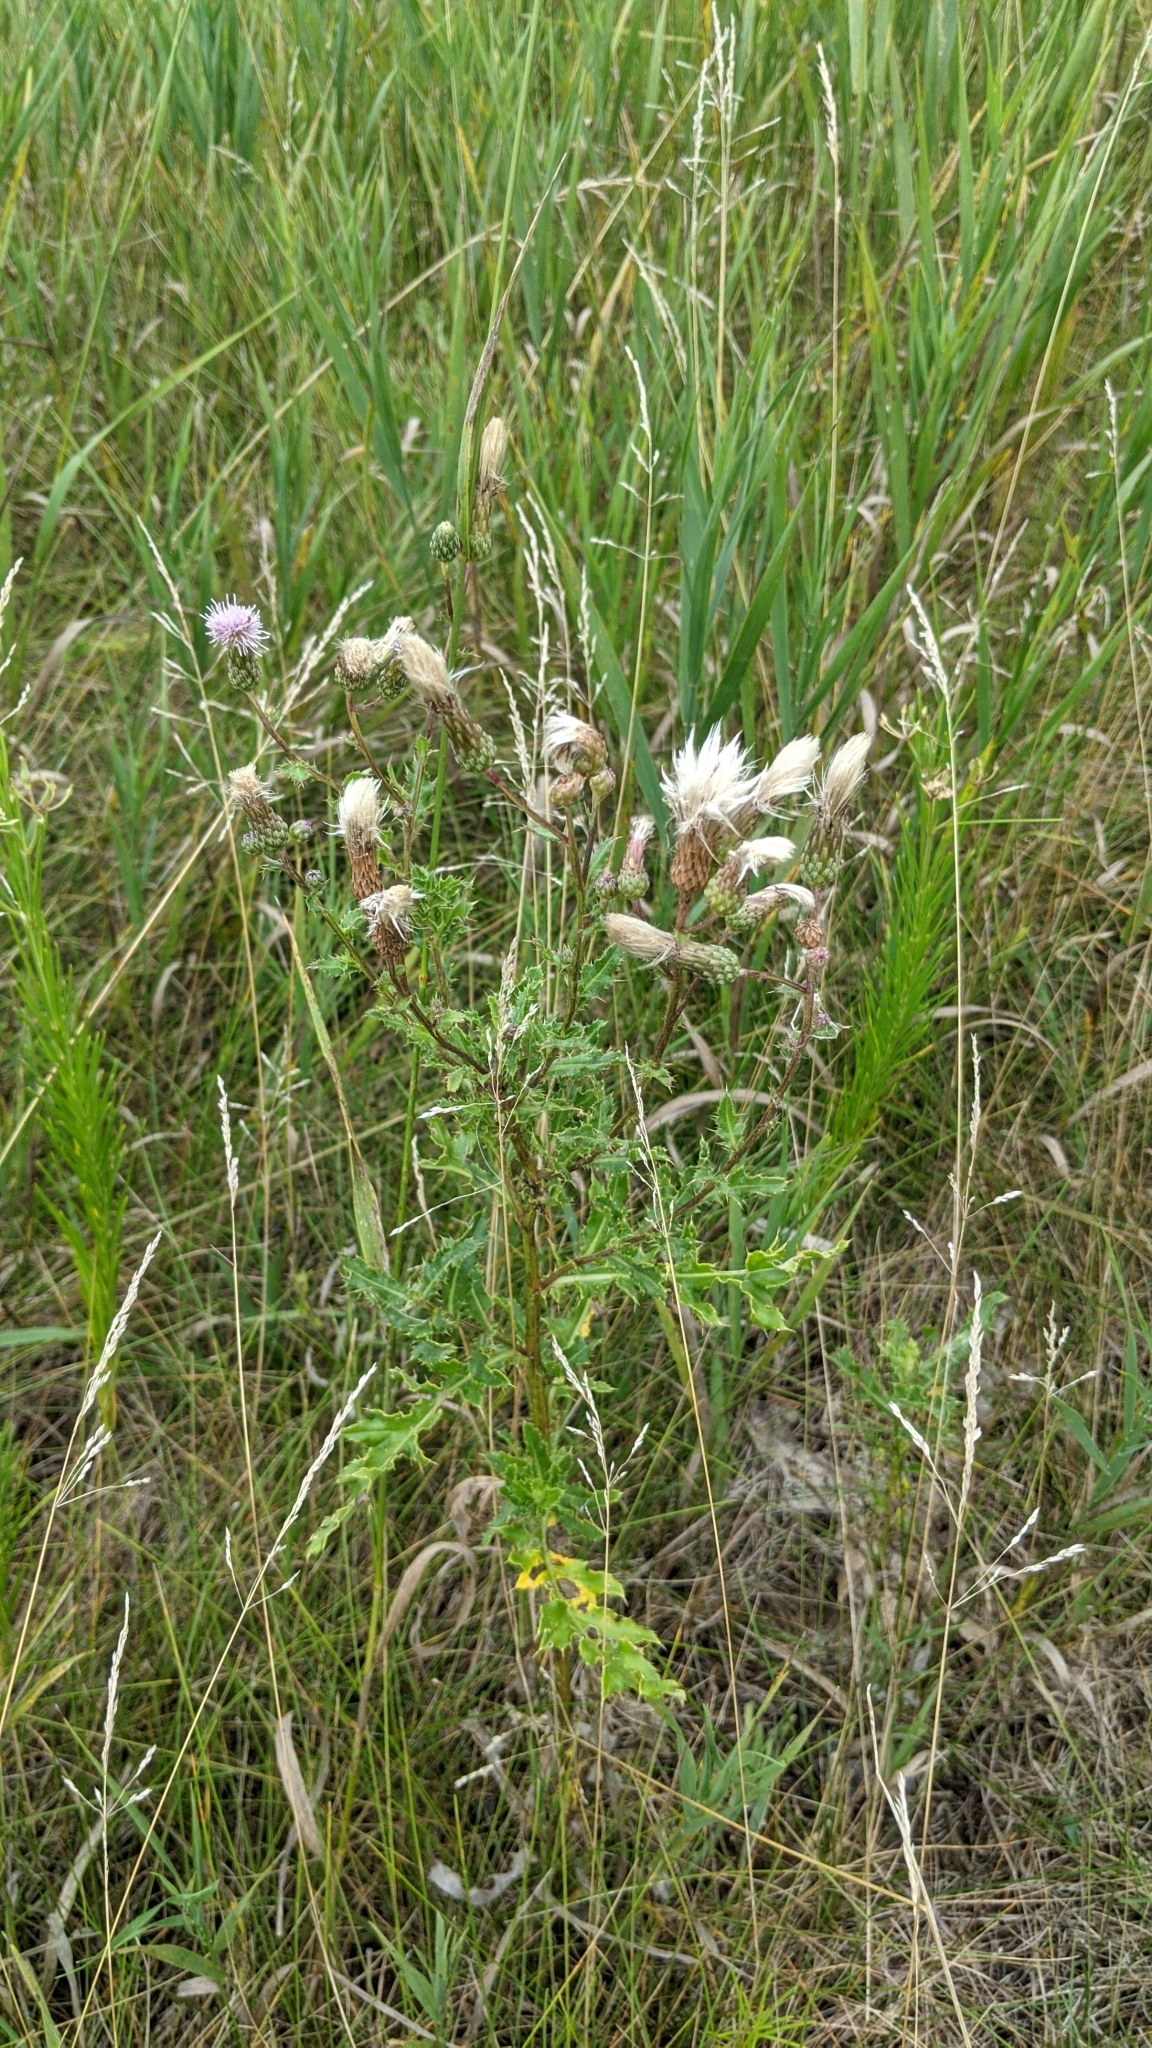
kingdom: Plantae
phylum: Tracheophyta
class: Magnoliopsida
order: Asterales
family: Asteraceae
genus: Cirsium
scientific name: Cirsium arvense
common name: Creeping thistle
